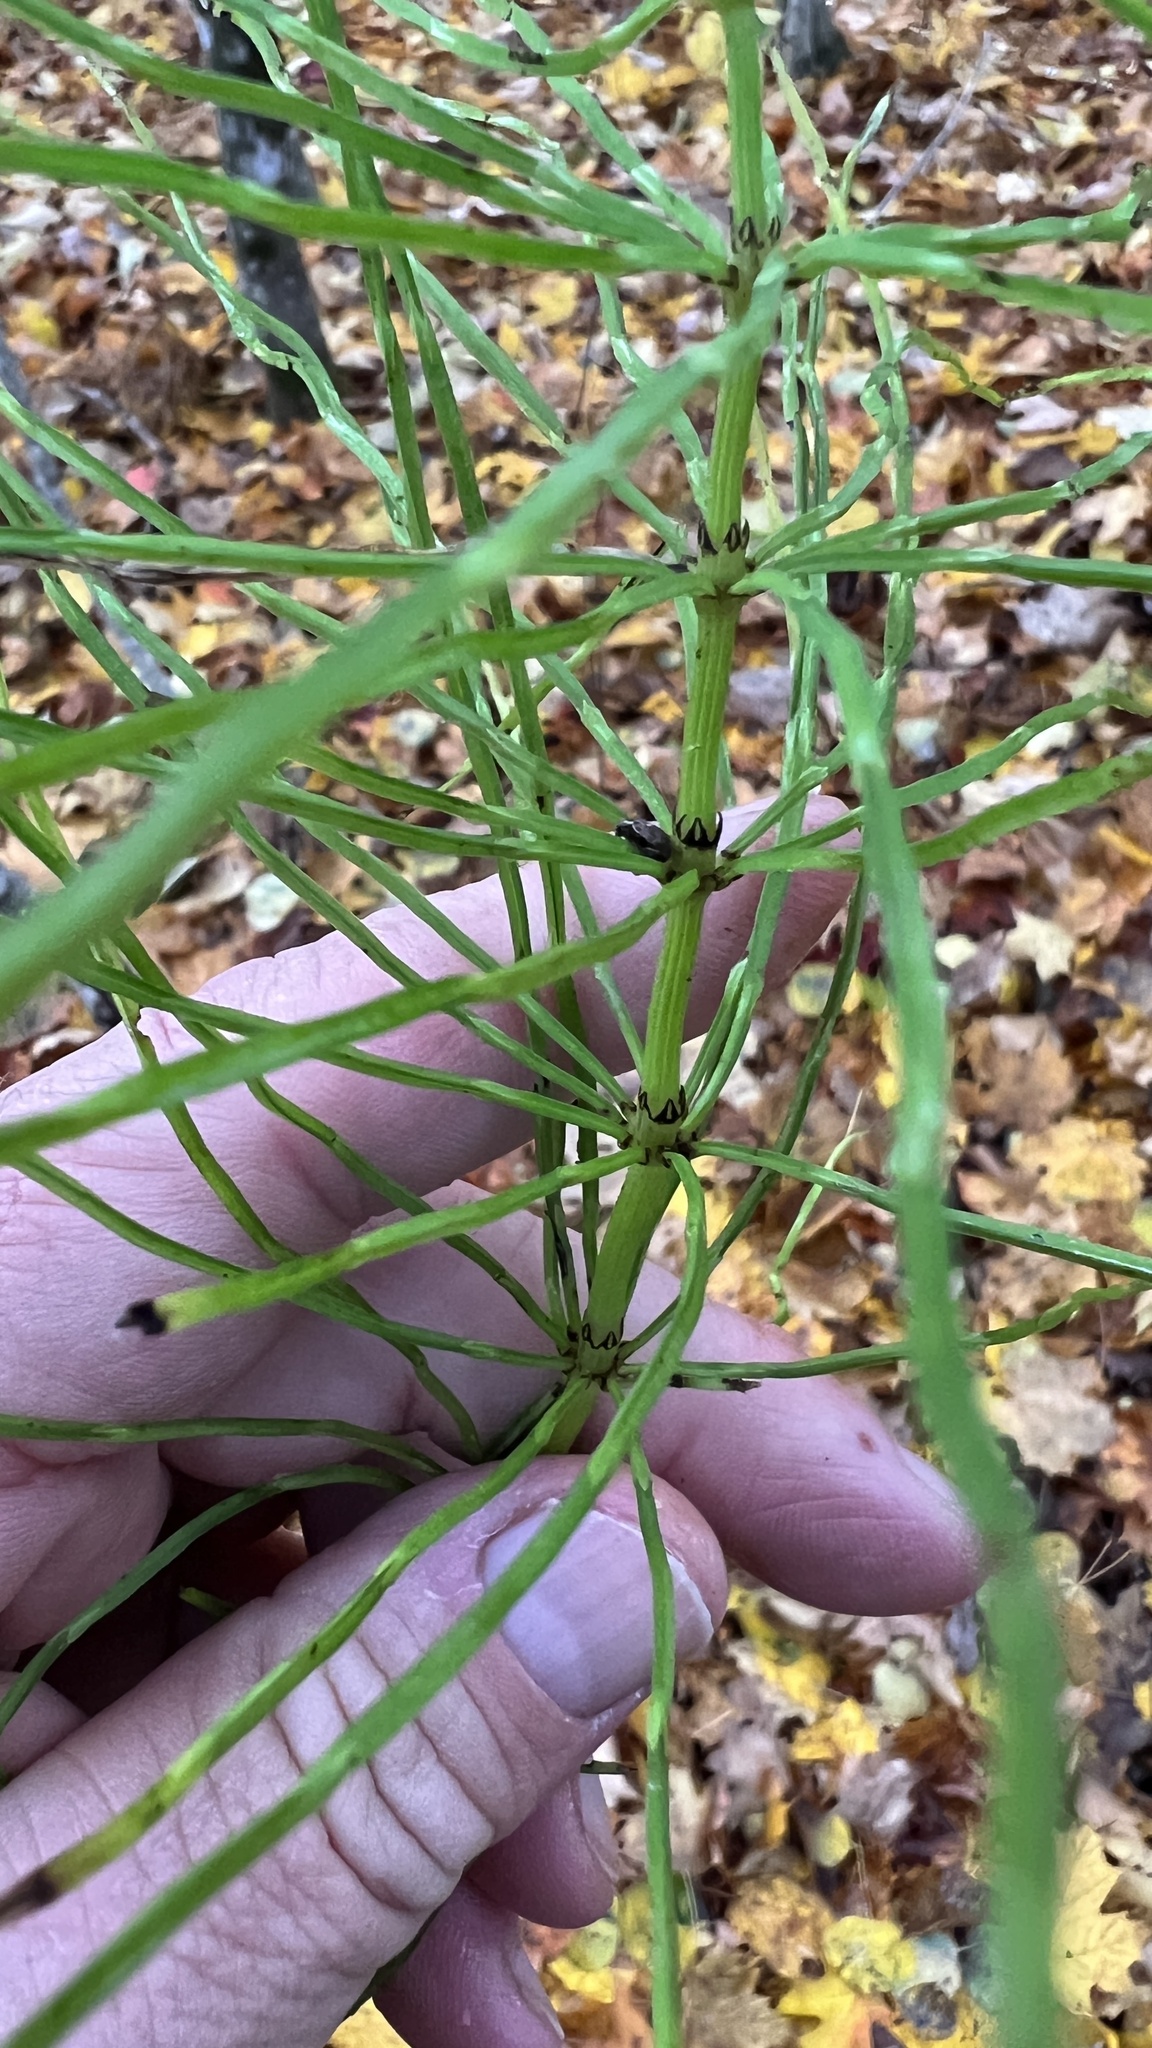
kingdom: Plantae
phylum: Tracheophyta
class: Polypodiopsida
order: Equisetales
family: Equisetaceae
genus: Equisetum
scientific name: Equisetum arvense
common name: Field horsetail
